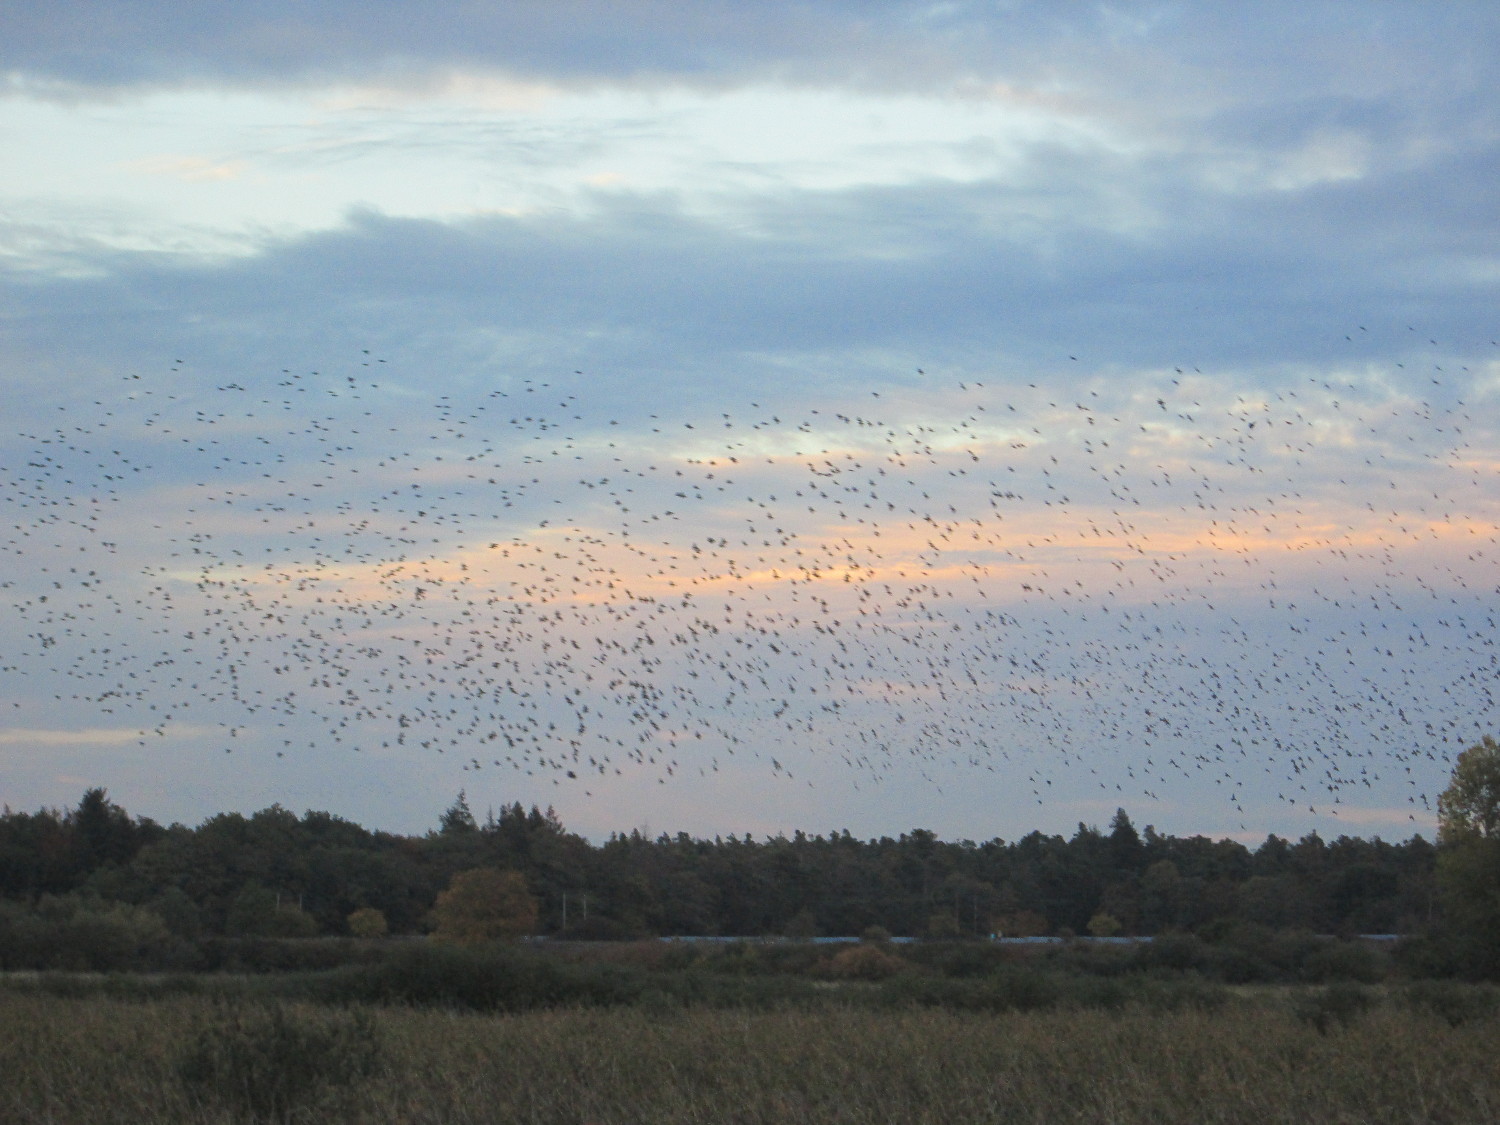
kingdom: Animalia
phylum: Chordata
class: Aves
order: Passeriformes
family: Sturnidae
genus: Sturnus
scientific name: Sturnus vulgaris
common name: Common starling
